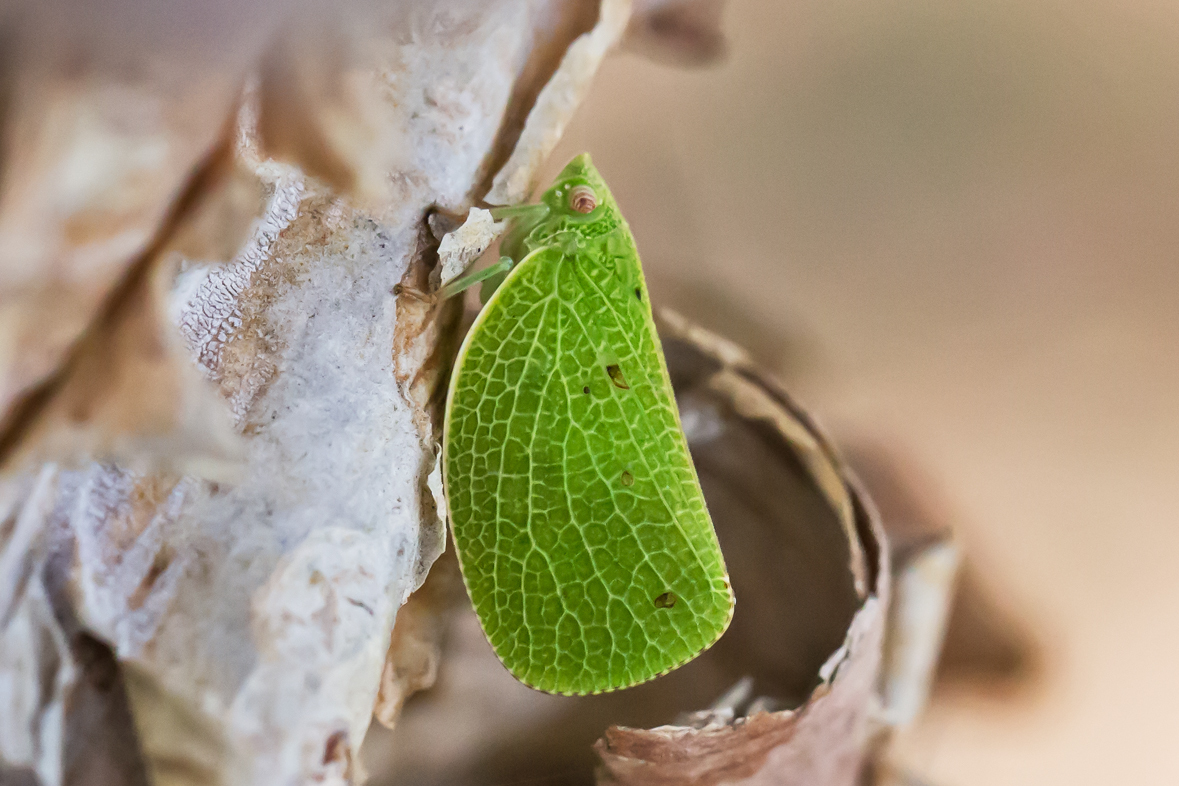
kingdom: Animalia
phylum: Arthropoda
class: Insecta
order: Hemiptera
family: Acanaloniidae
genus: Acanalonia
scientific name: Acanalonia conica
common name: Green cone-headed planthopper
